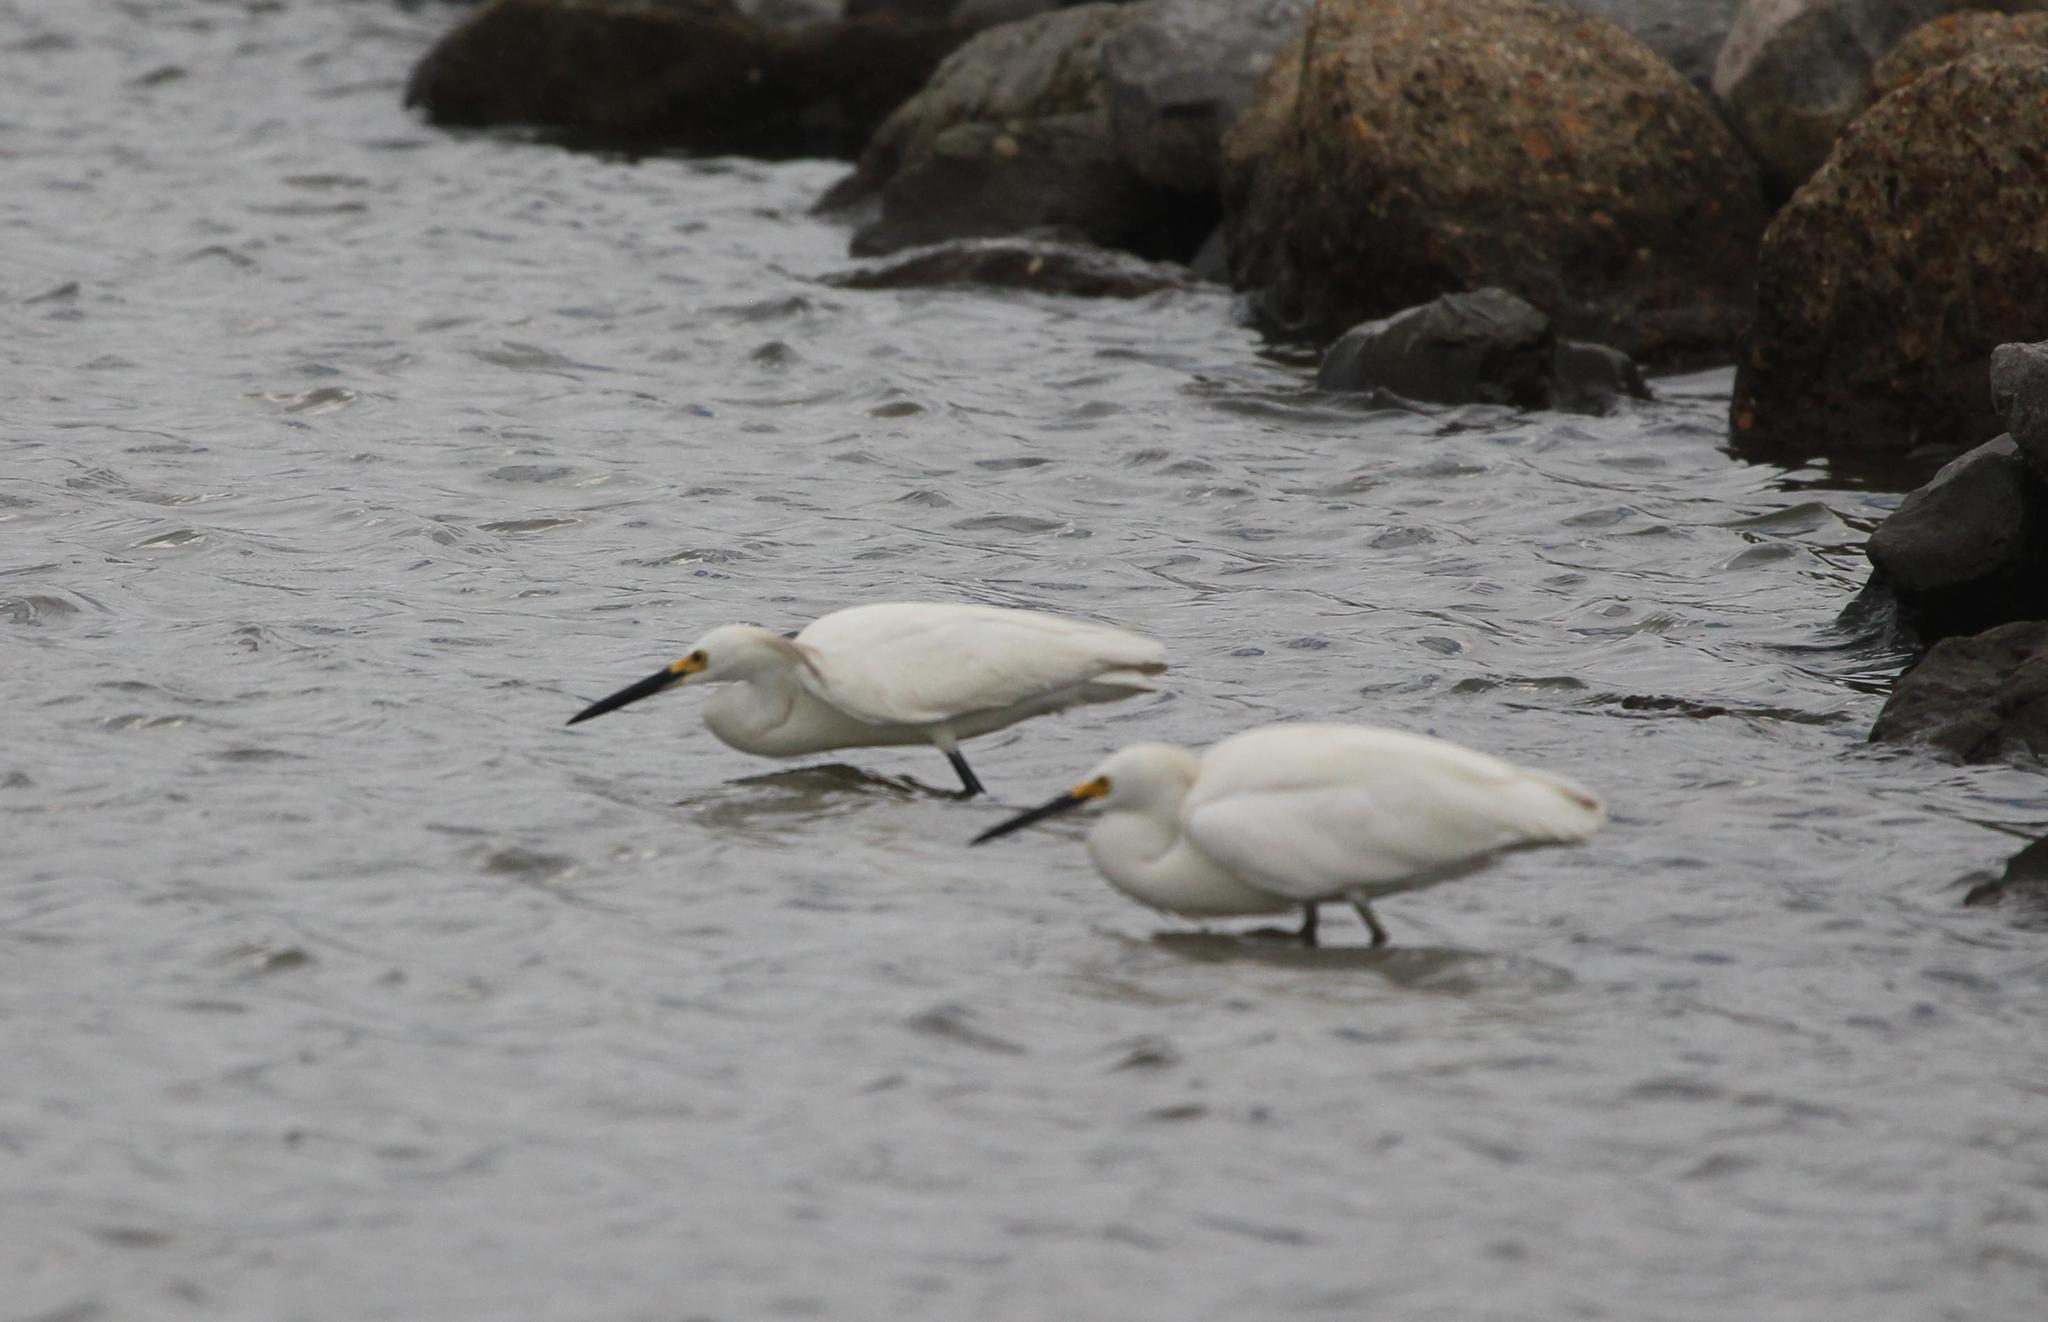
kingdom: Animalia
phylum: Chordata
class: Aves
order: Pelecaniformes
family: Ardeidae
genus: Egretta
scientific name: Egretta thula
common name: Snowy egret
